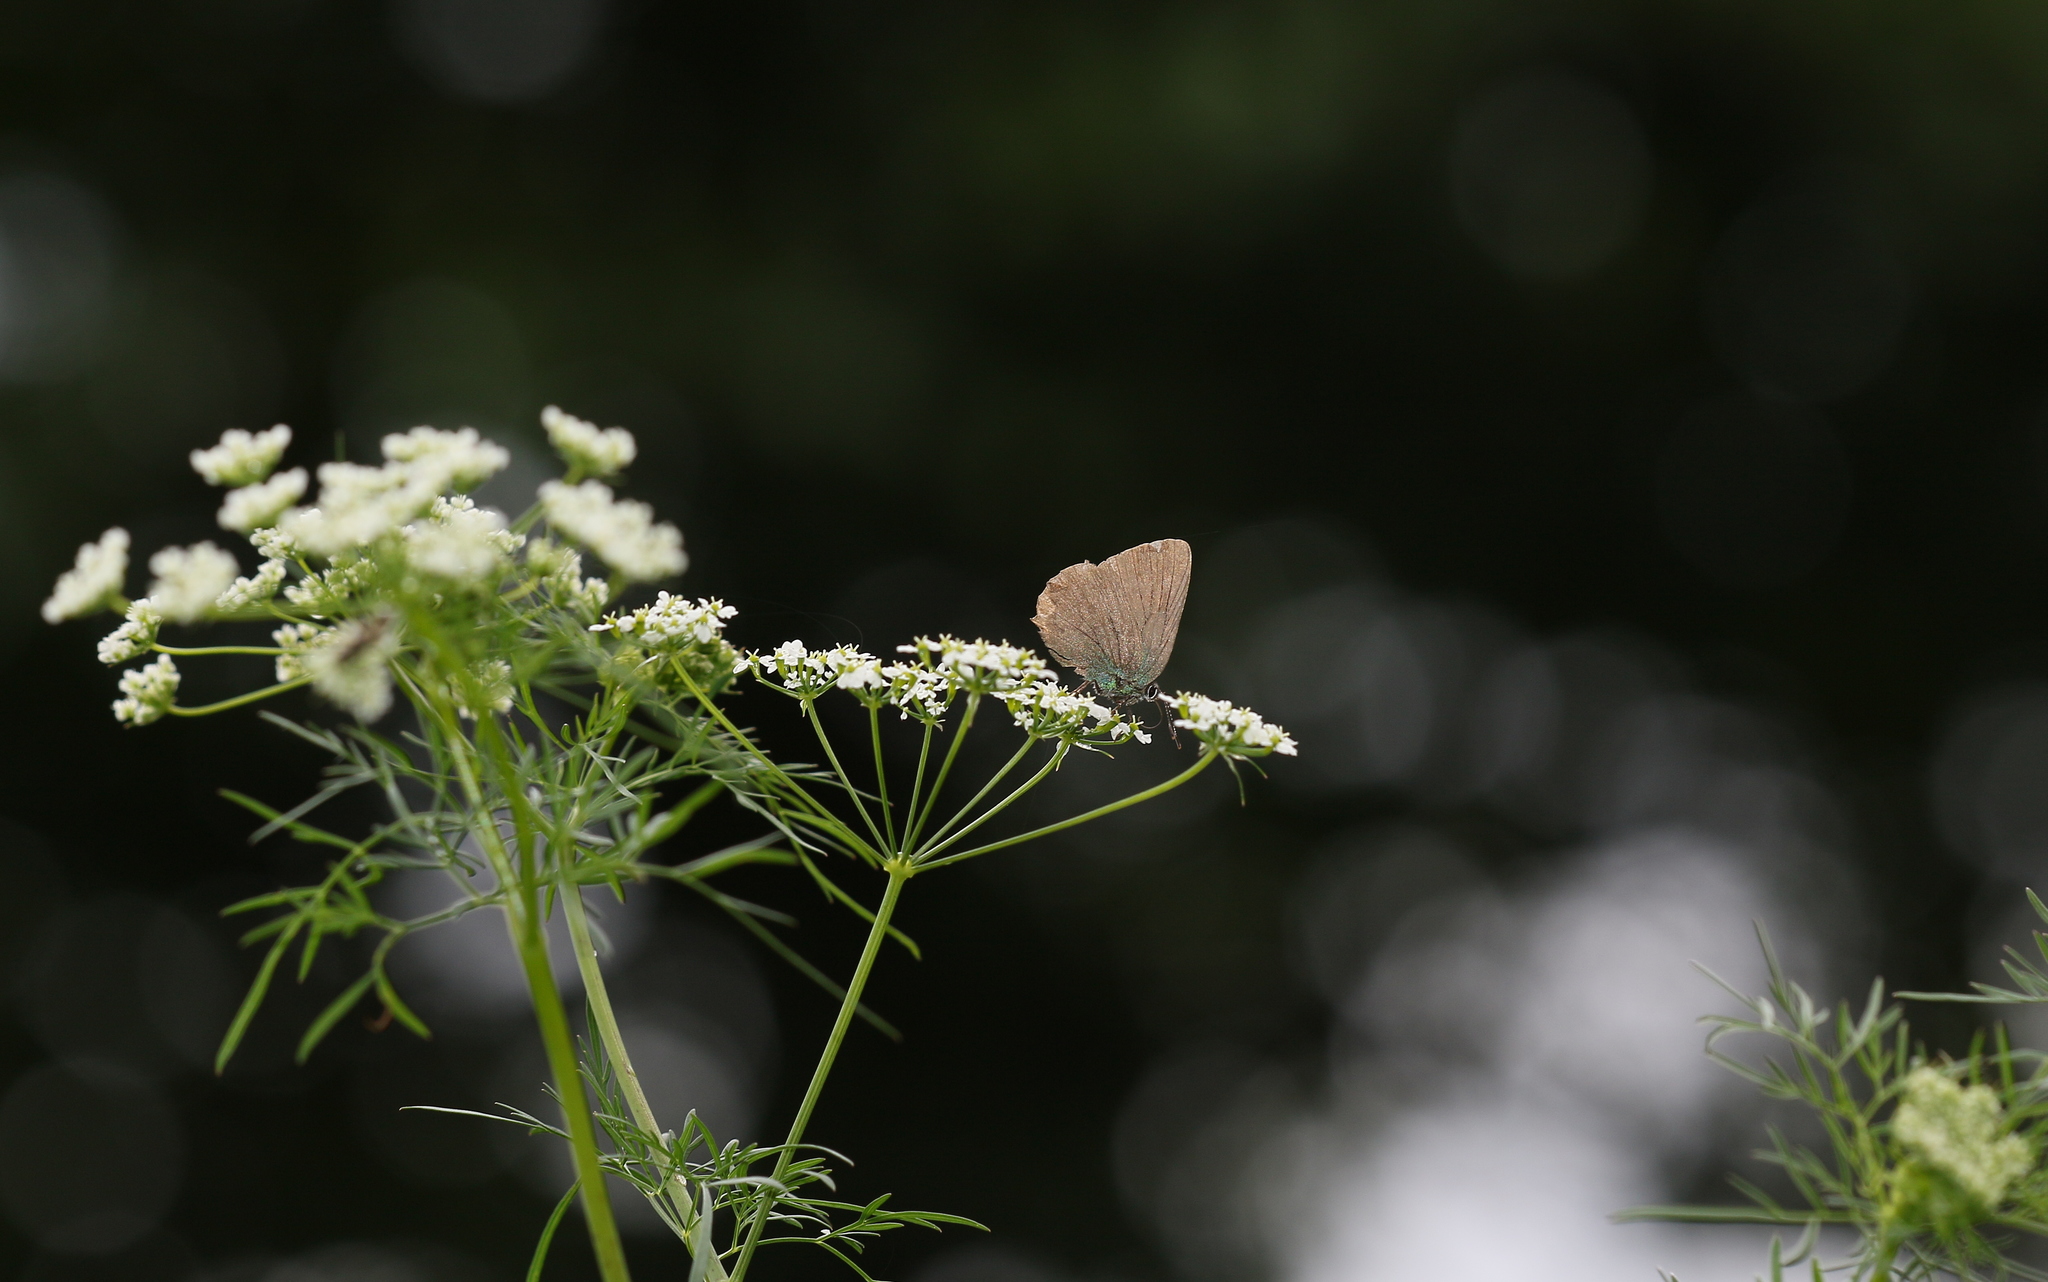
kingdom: Animalia
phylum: Arthropoda
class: Insecta
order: Lepidoptera
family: Lycaenidae
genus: Callophrys
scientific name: Callophrys rubi
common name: Green hairstreak
